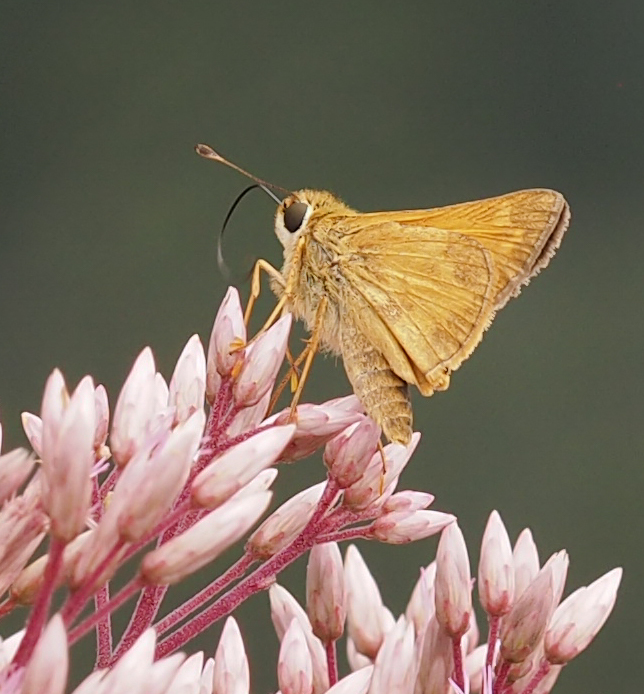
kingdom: Animalia
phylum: Arthropoda
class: Insecta
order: Lepidoptera
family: Hesperiidae
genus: Atalopedes
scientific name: Atalopedes
